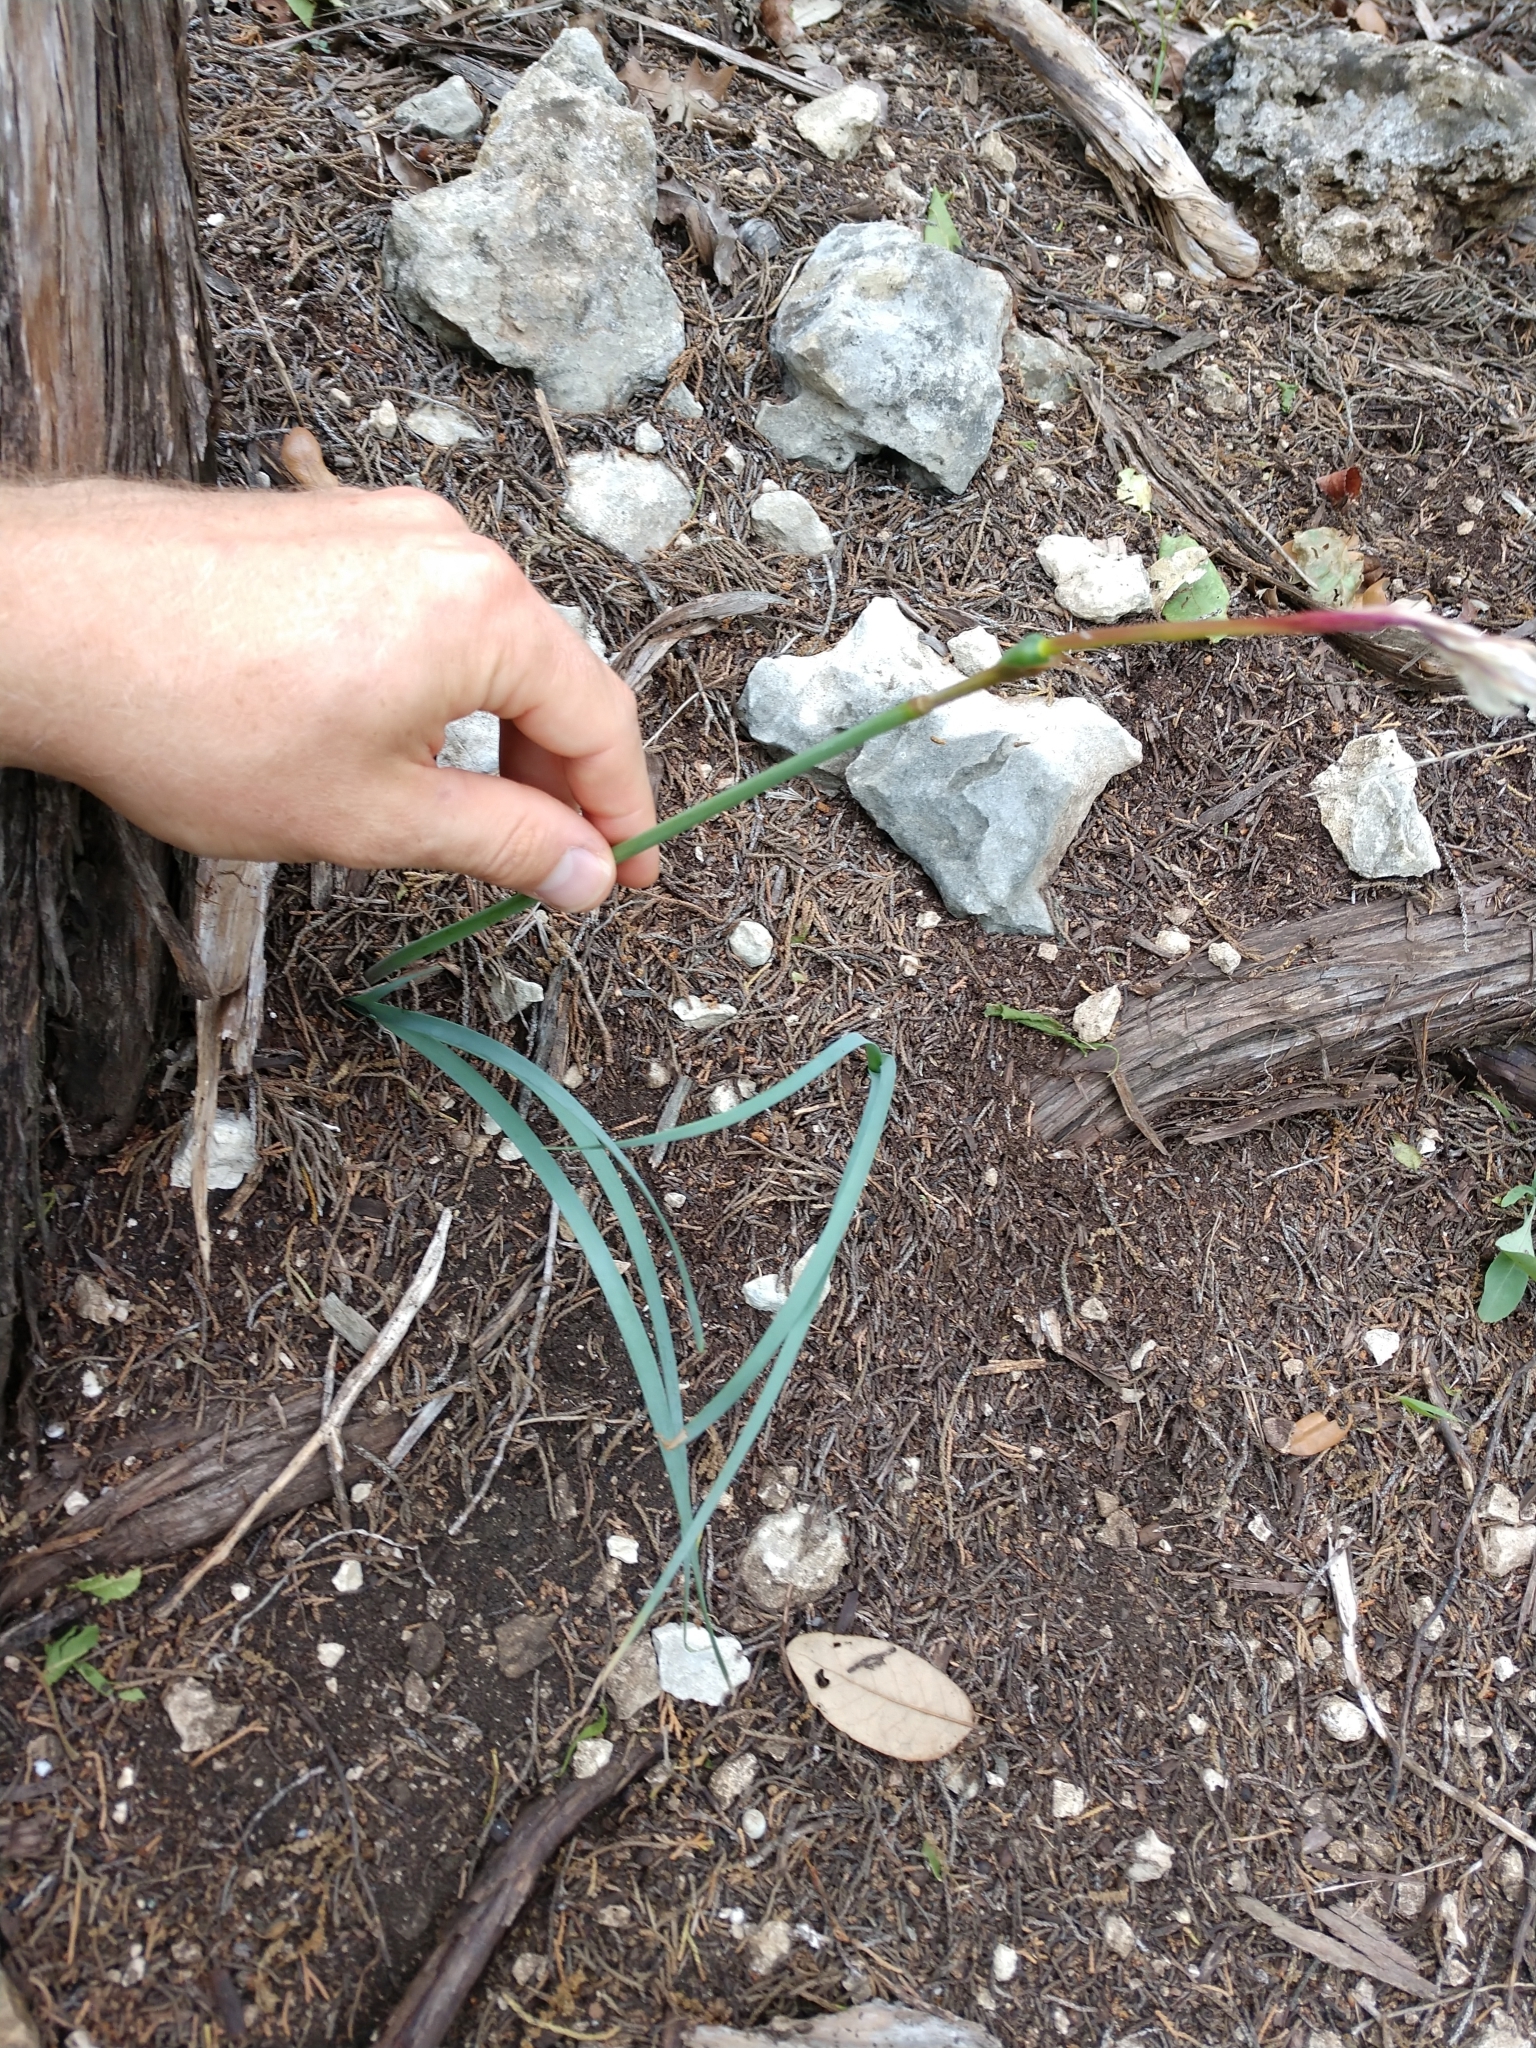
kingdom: Plantae
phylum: Tracheophyta
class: Liliopsida
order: Asparagales
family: Amaryllidaceae
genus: Zephyranthes
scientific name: Zephyranthes drummondii
